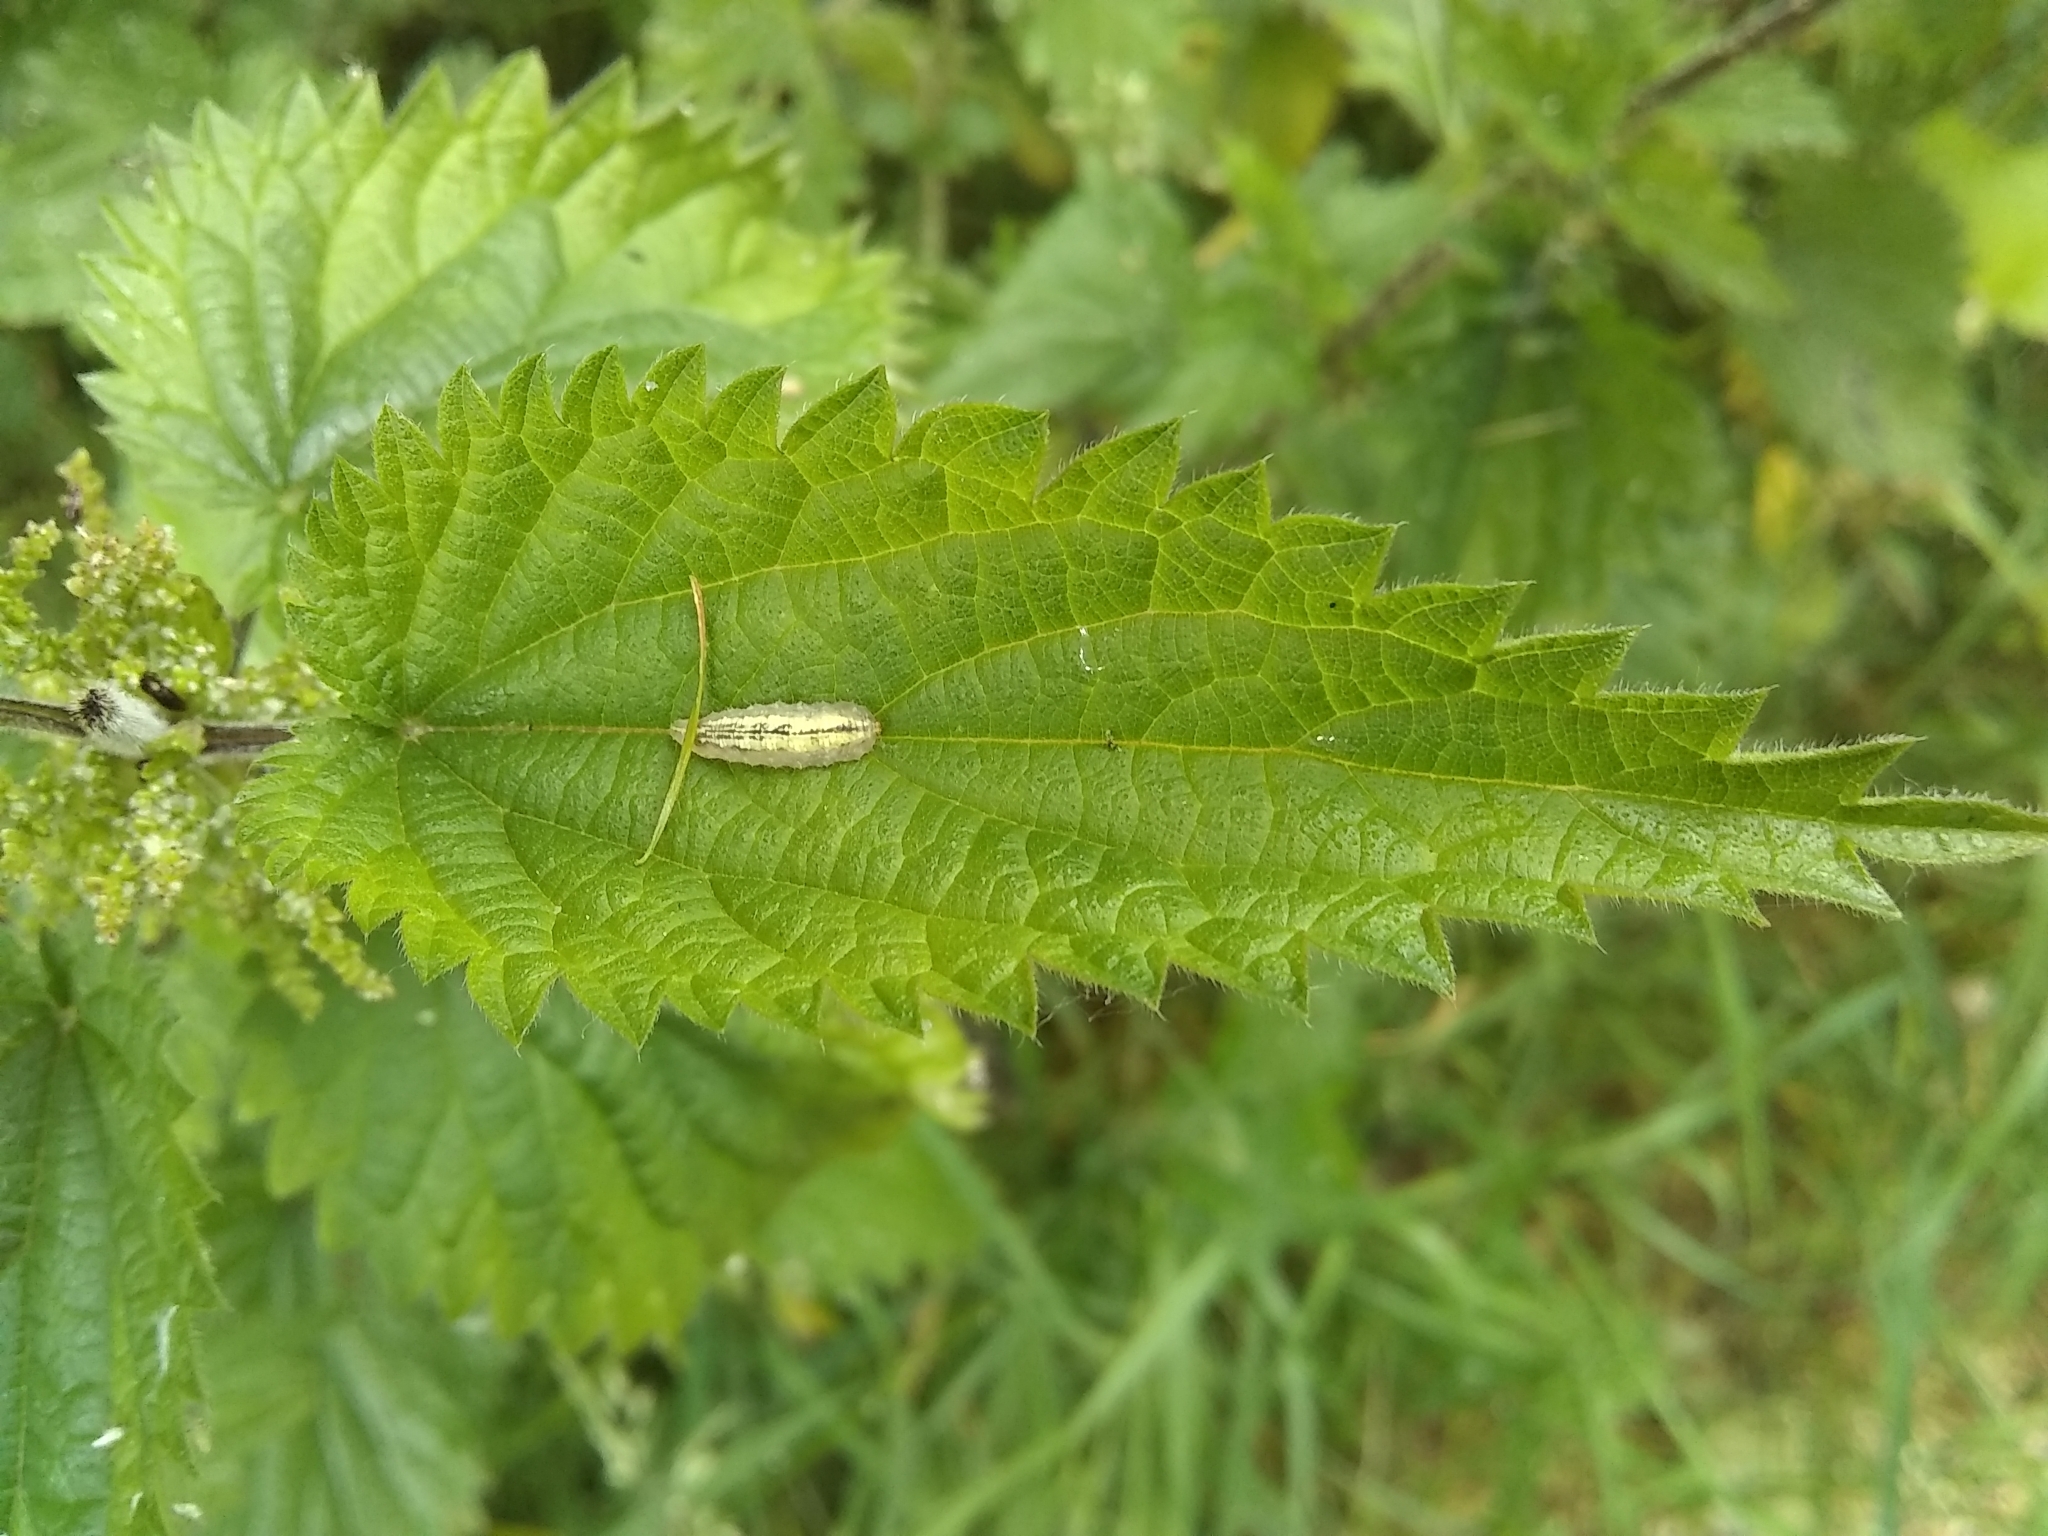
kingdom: Animalia
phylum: Arthropoda
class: Insecta
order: Diptera
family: Syrphidae
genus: Syrphus
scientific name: Syrphus
